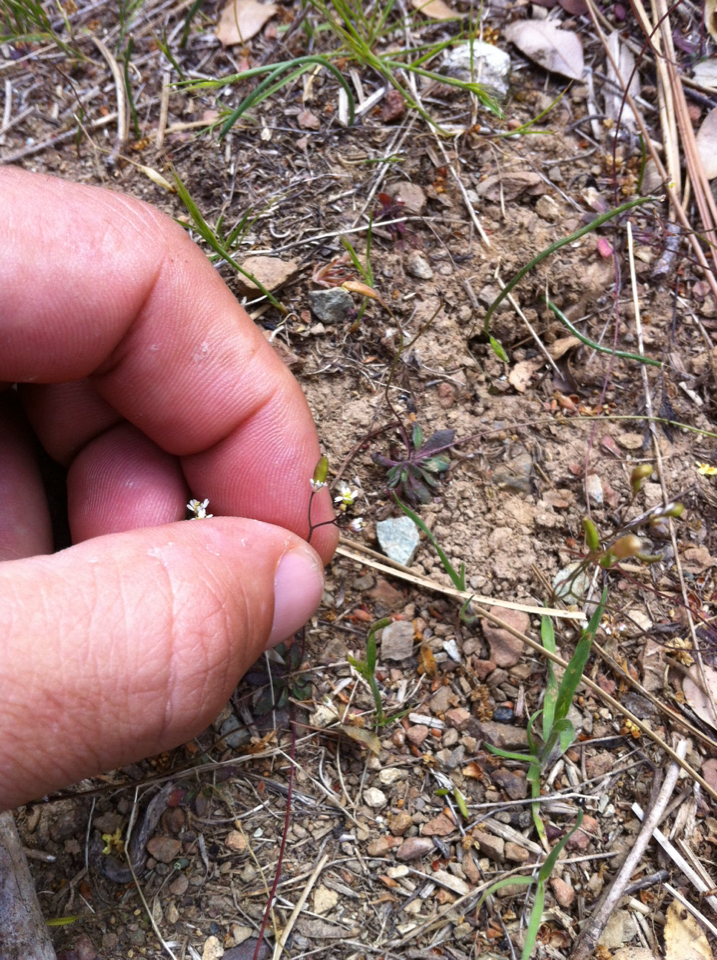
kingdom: Plantae
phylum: Tracheophyta
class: Magnoliopsida
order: Brassicales
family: Brassicaceae
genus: Draba
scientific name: Draba verna
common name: Spring draba
